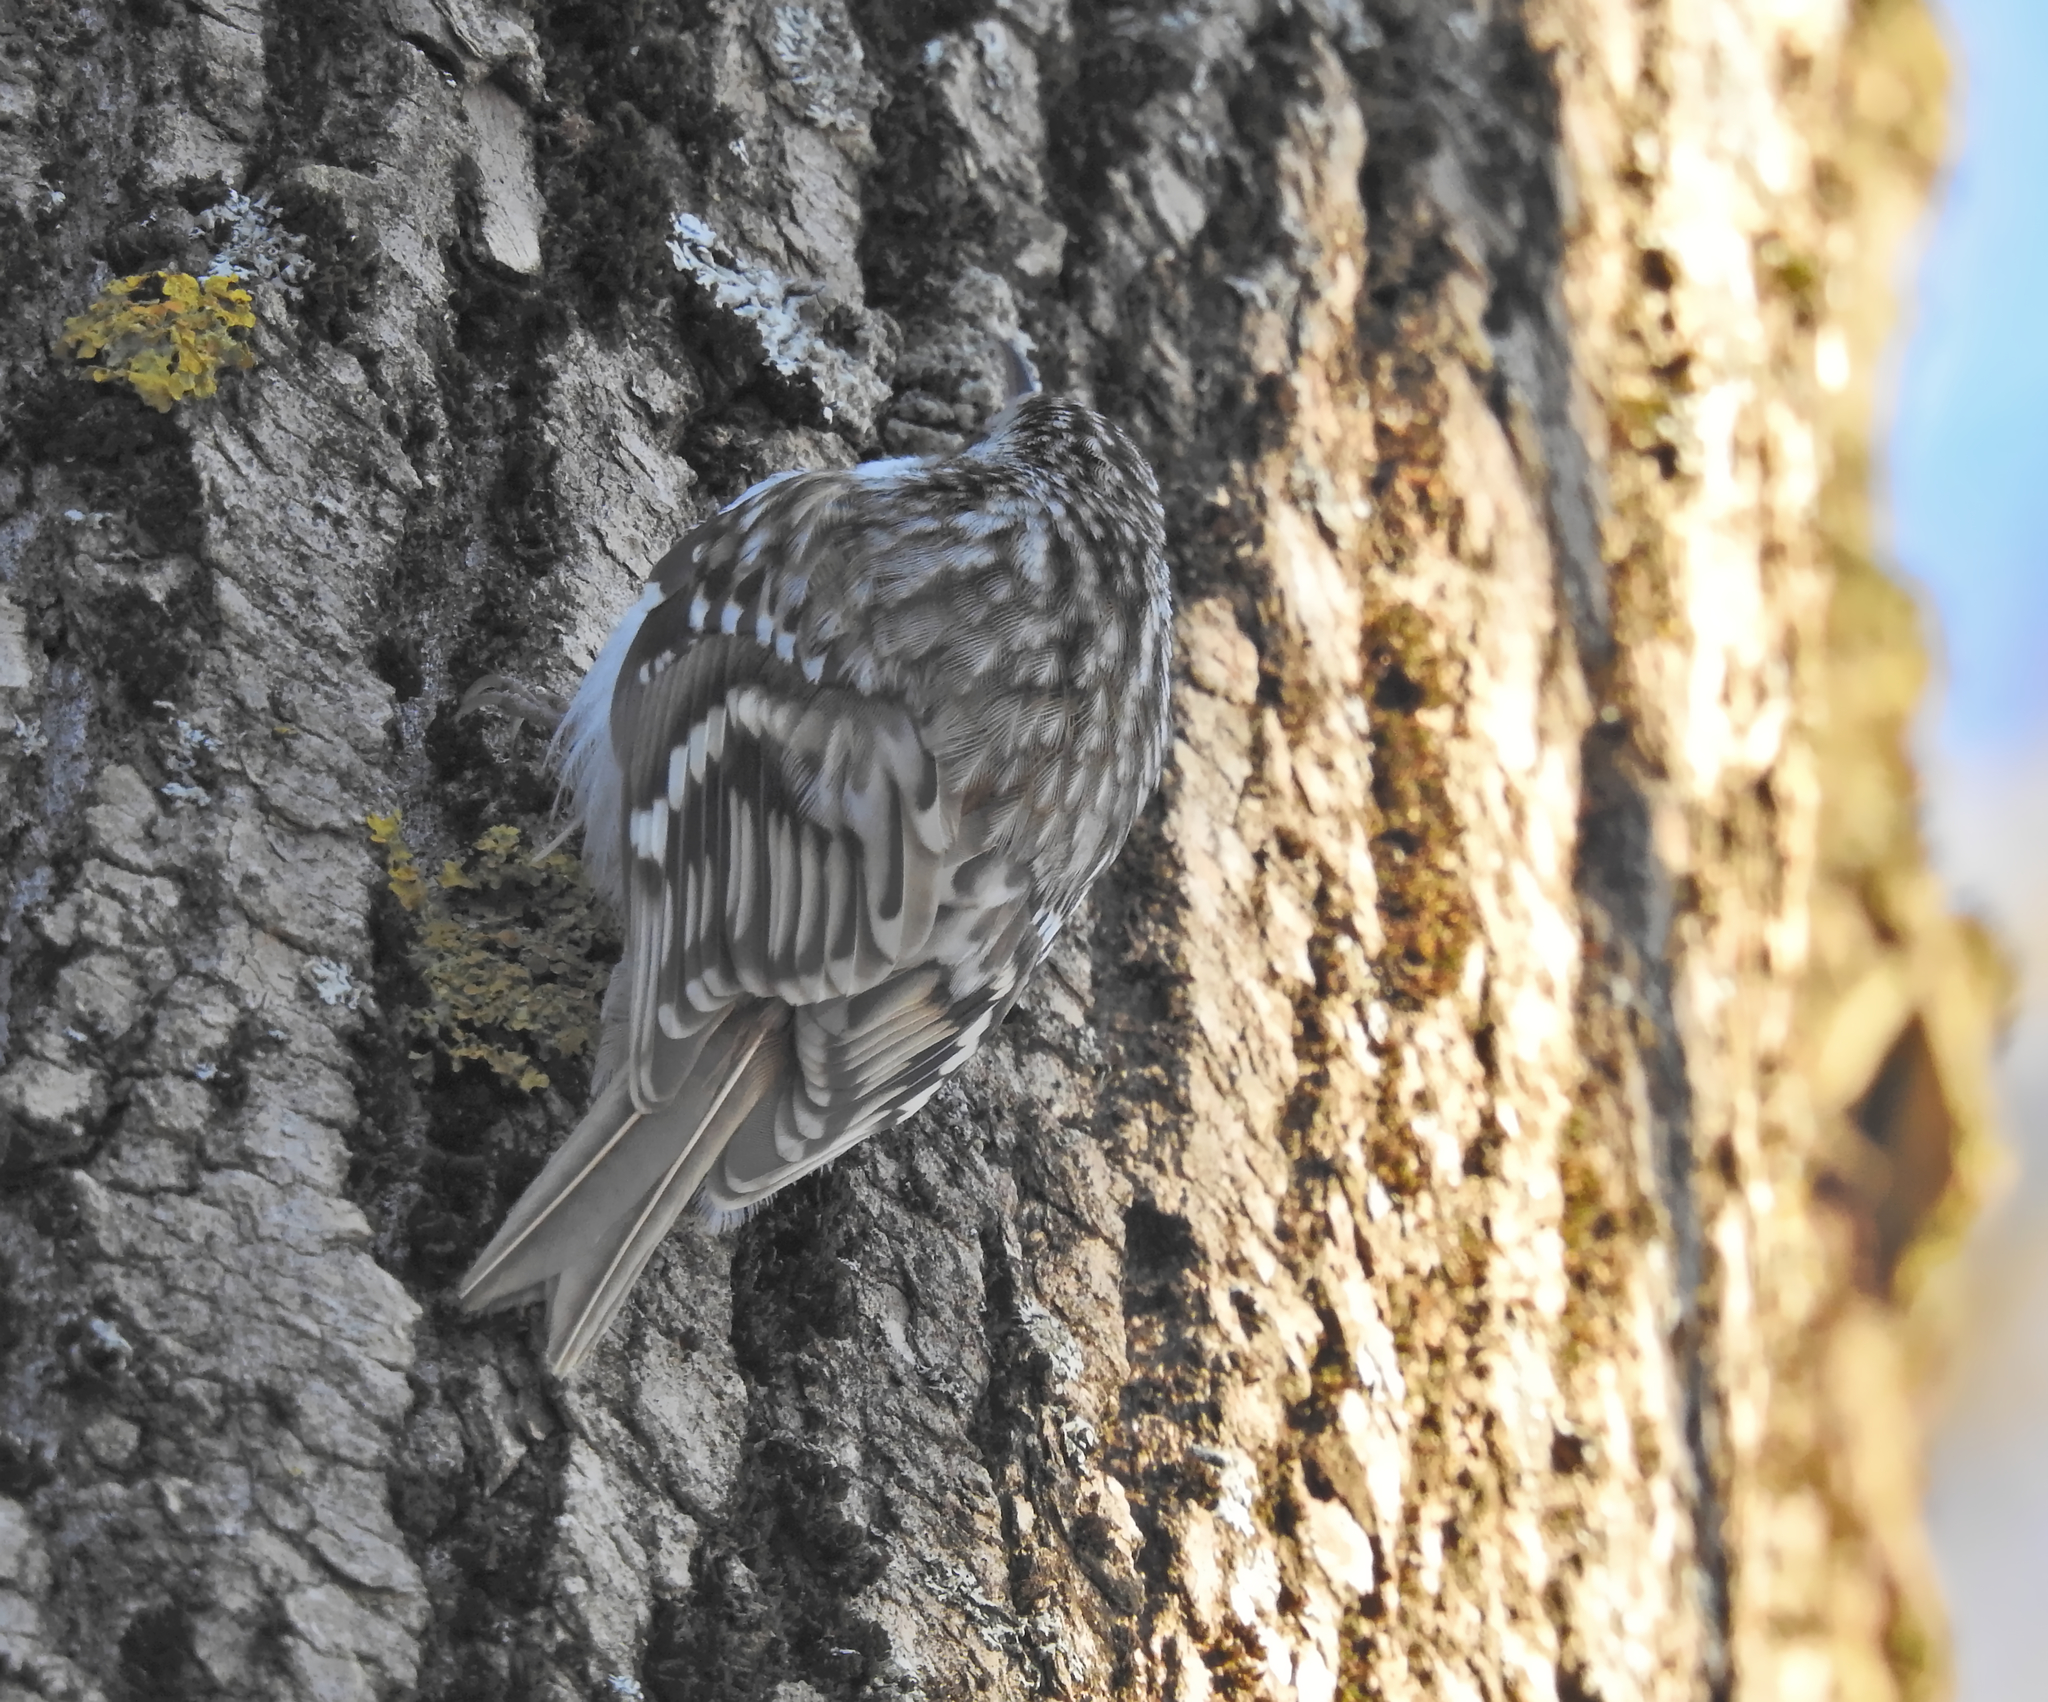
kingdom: Animalia
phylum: Chordata
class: Aves
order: Passeriformes
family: Certhiidae
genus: Certhia
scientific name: Certhia familiaris
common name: Eurasian treecreeper
